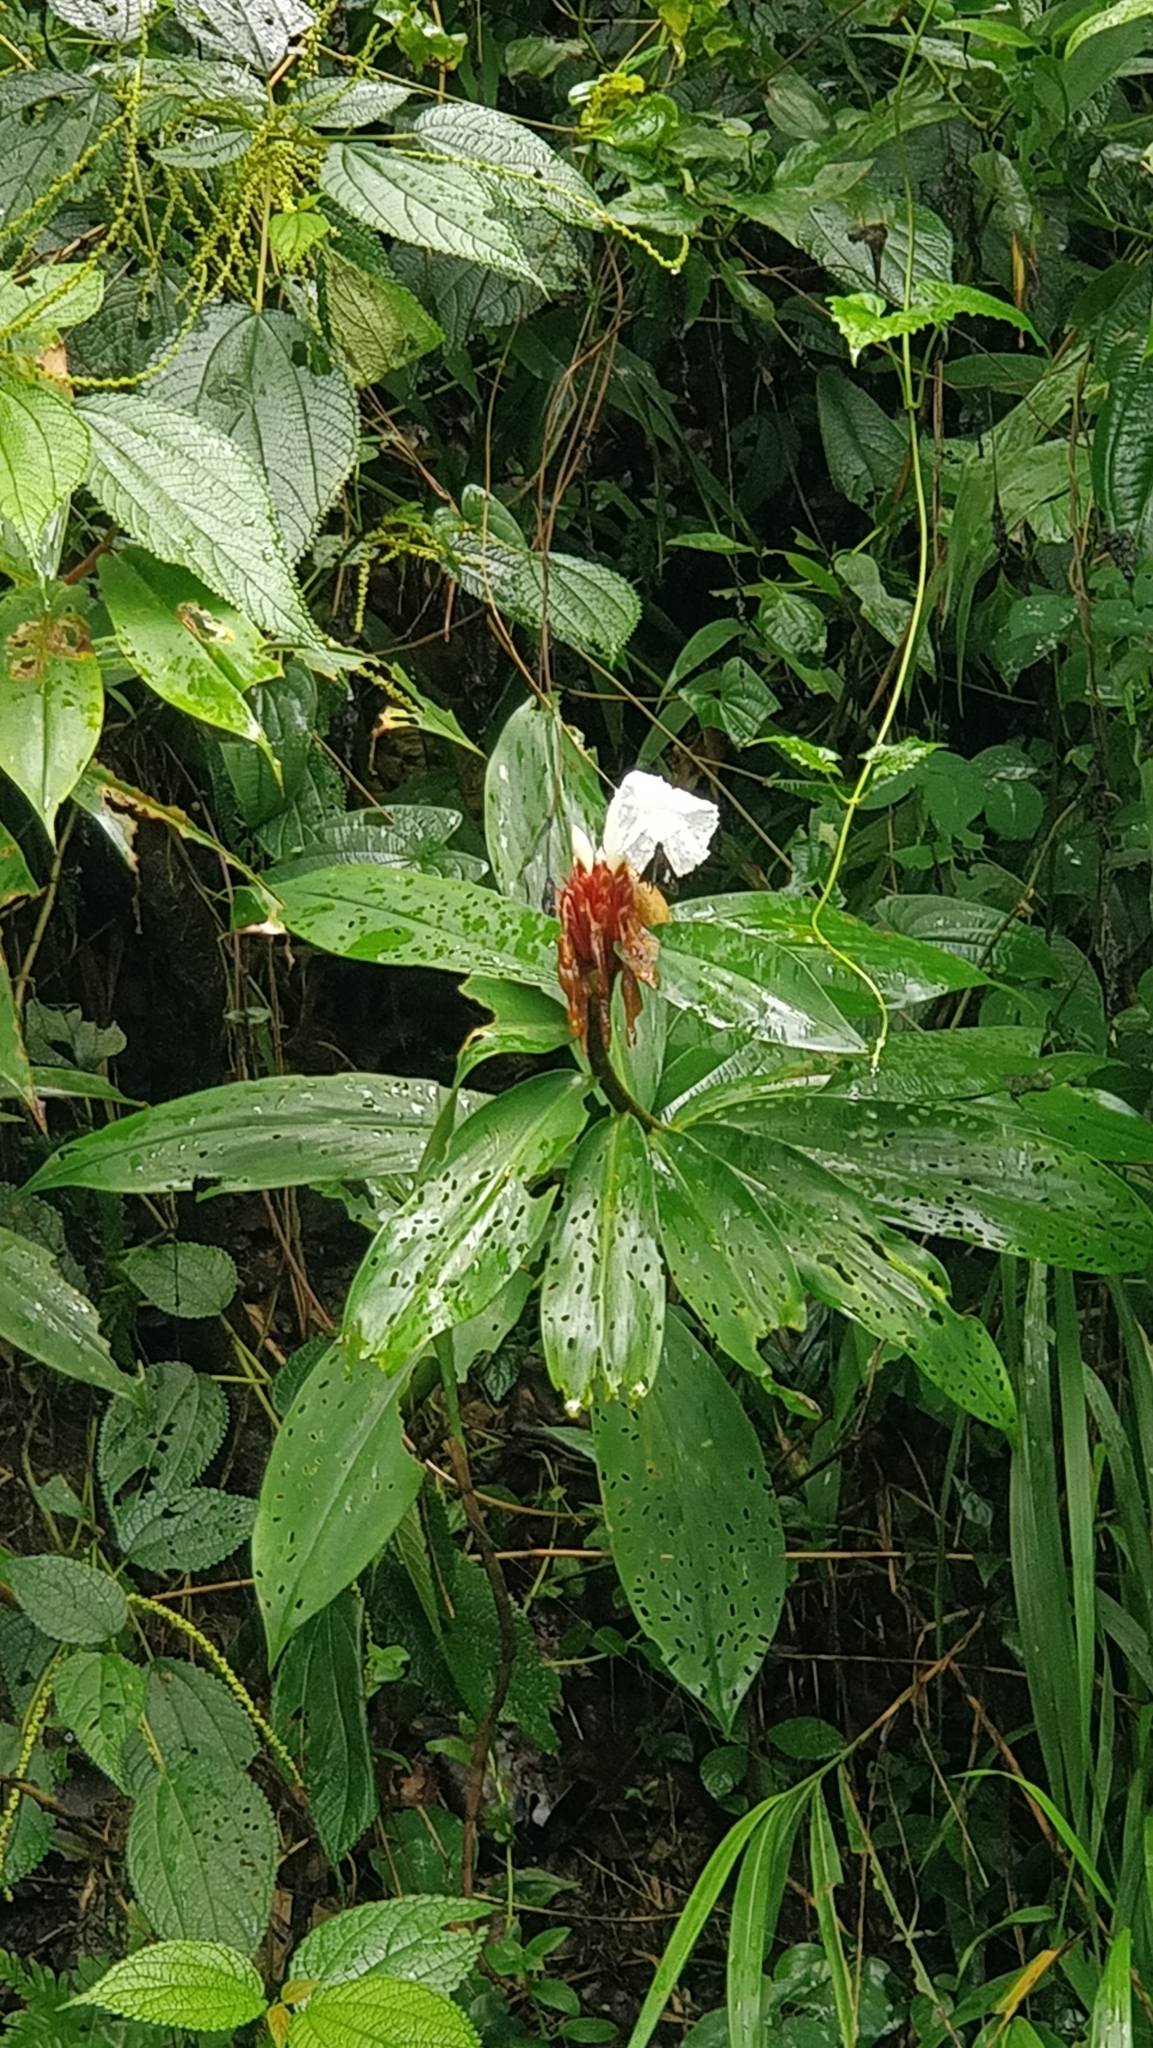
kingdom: Plantae
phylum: Tracheophyta
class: Liliopsida
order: Zingiberales
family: Costaceae
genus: Hellenia
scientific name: Hellenia speciosa
